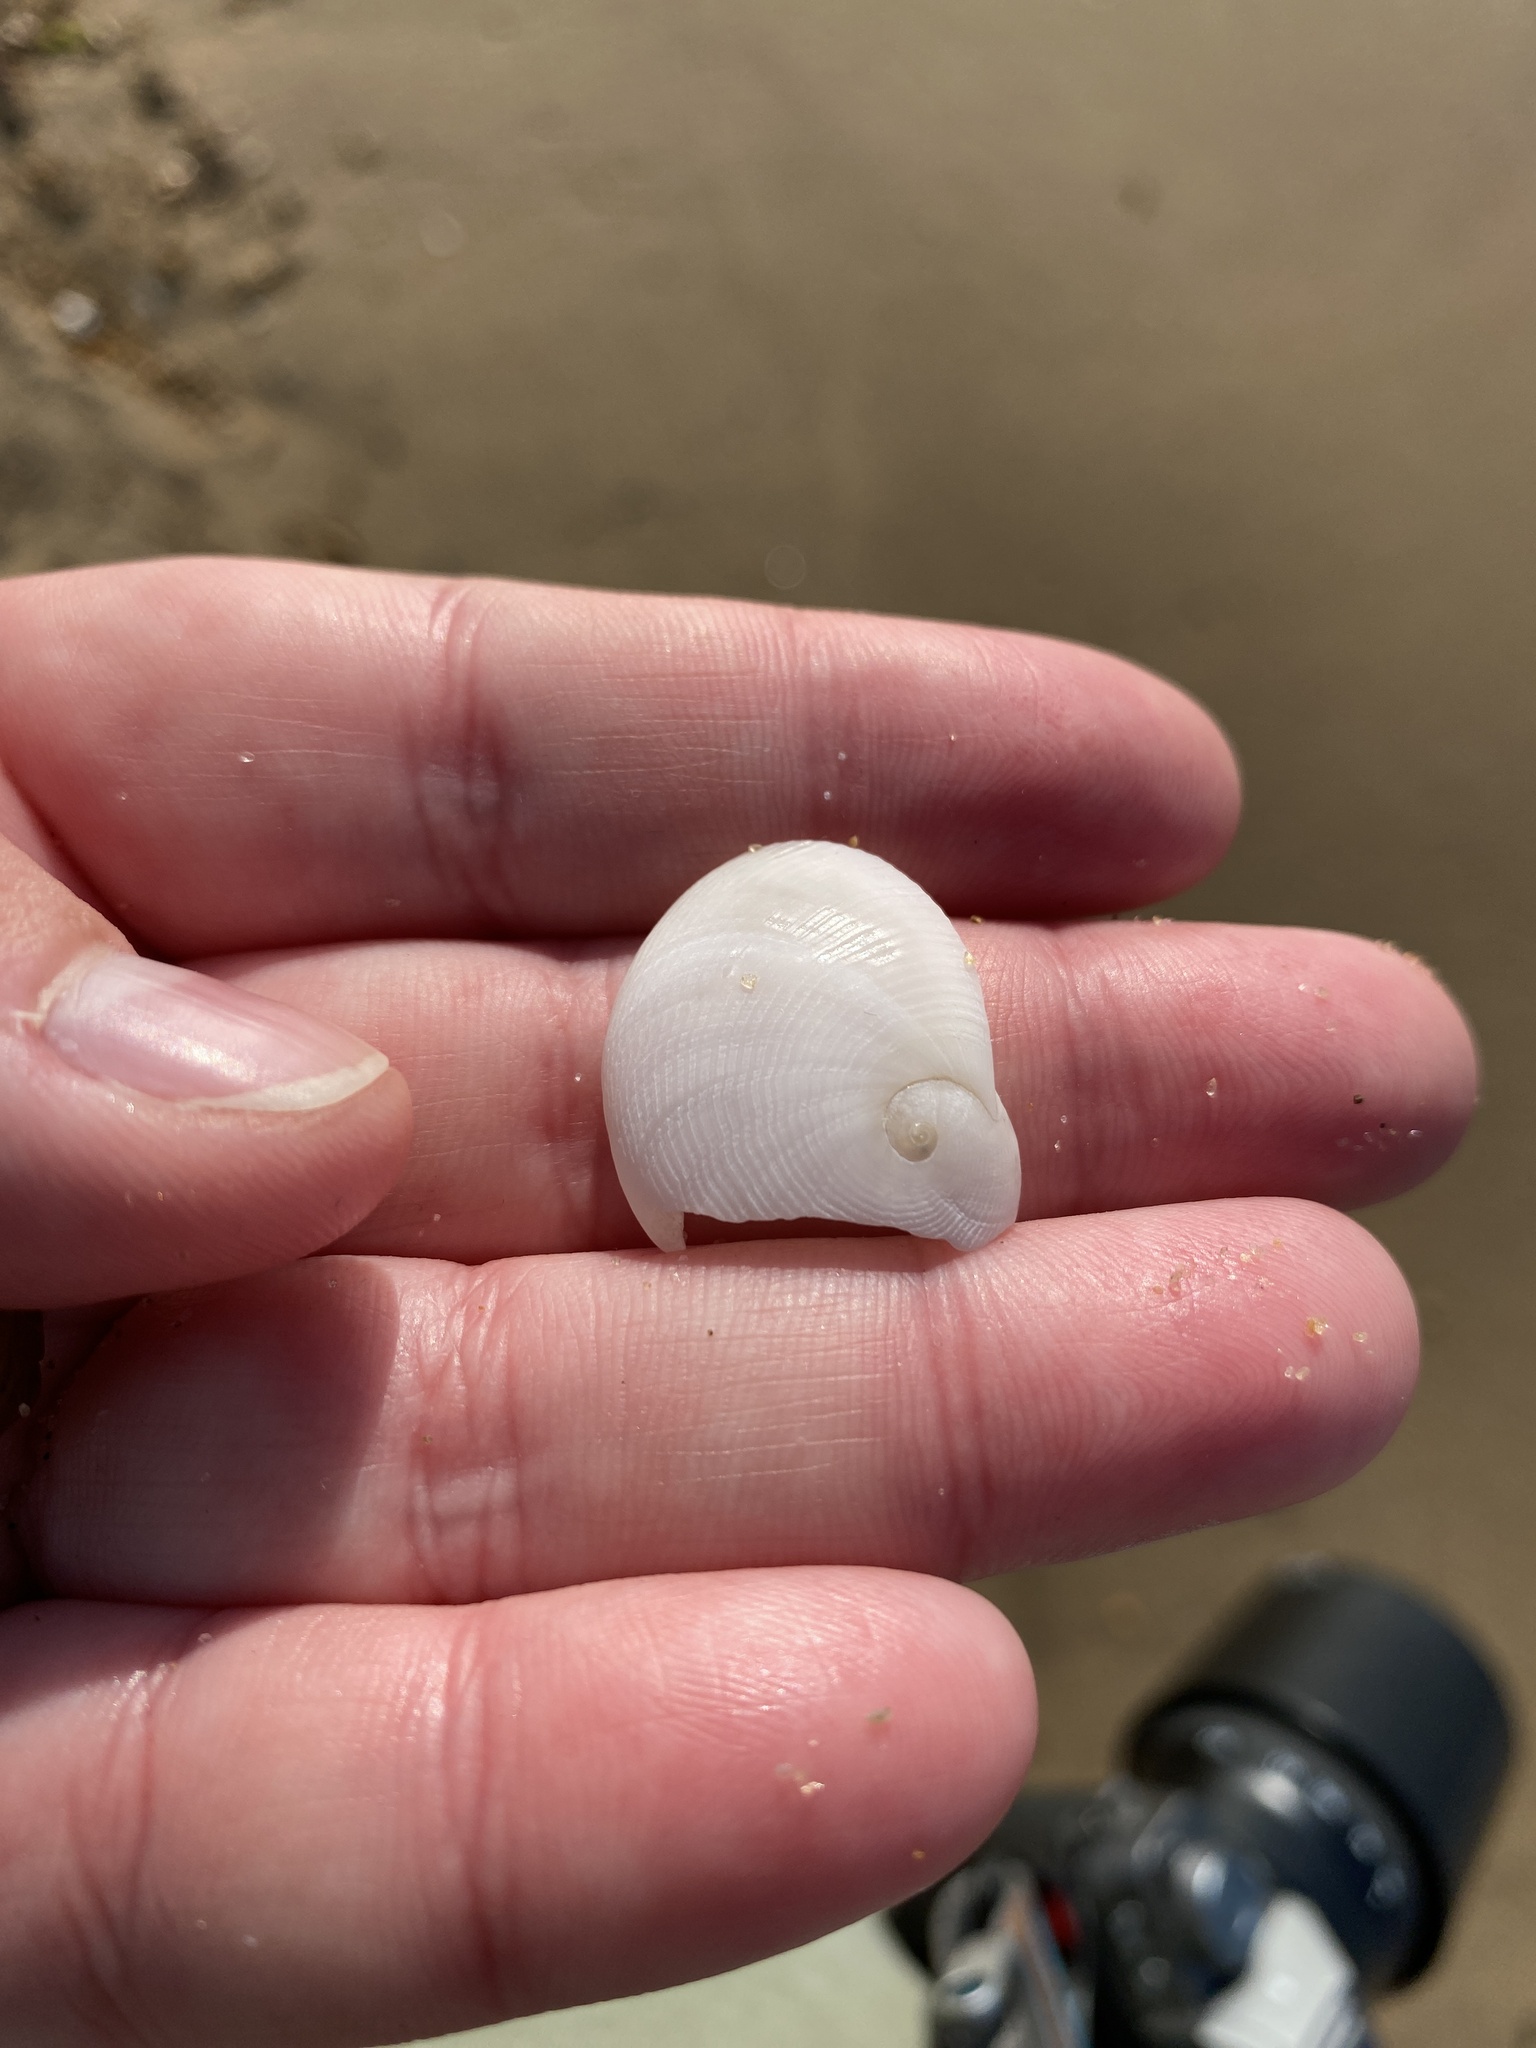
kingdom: Animalia
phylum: Mollusca
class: Gastropoda
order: Littorinimorpha
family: Naticidae
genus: Sinum
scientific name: Sinum perspectivum
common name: White baby ear
